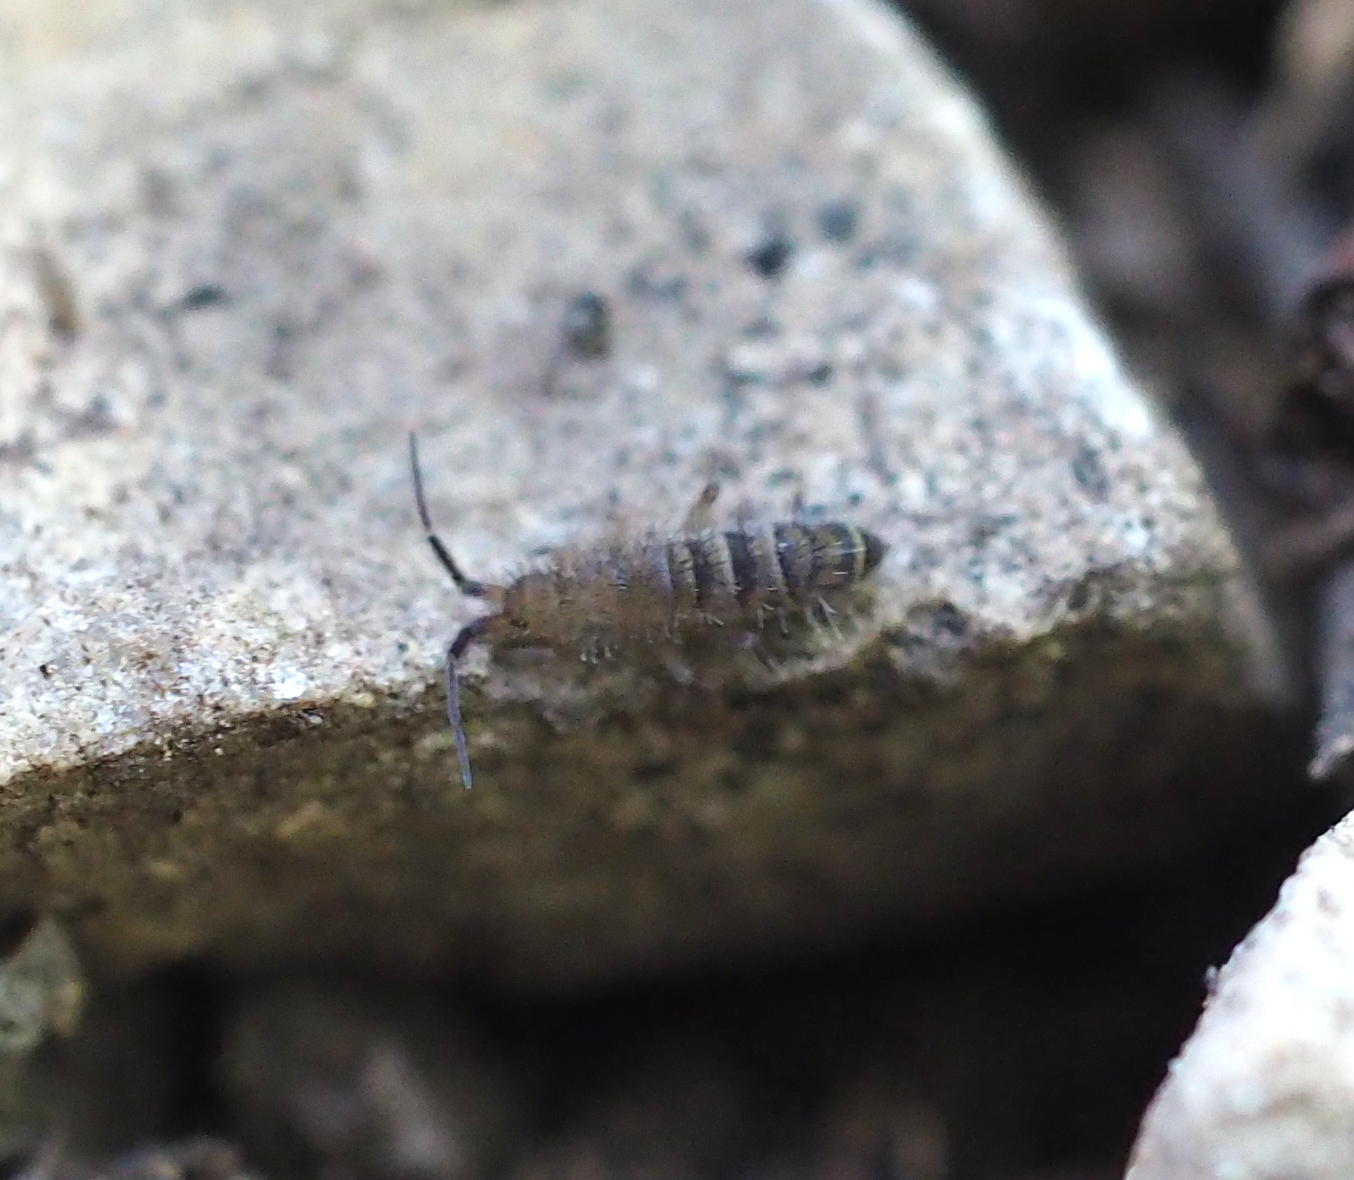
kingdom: Animalia
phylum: Arthropoda
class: Collembola
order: Entomobryomorpha
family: Orchesellidae
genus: Orchesella
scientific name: Orchesella bifasciata
